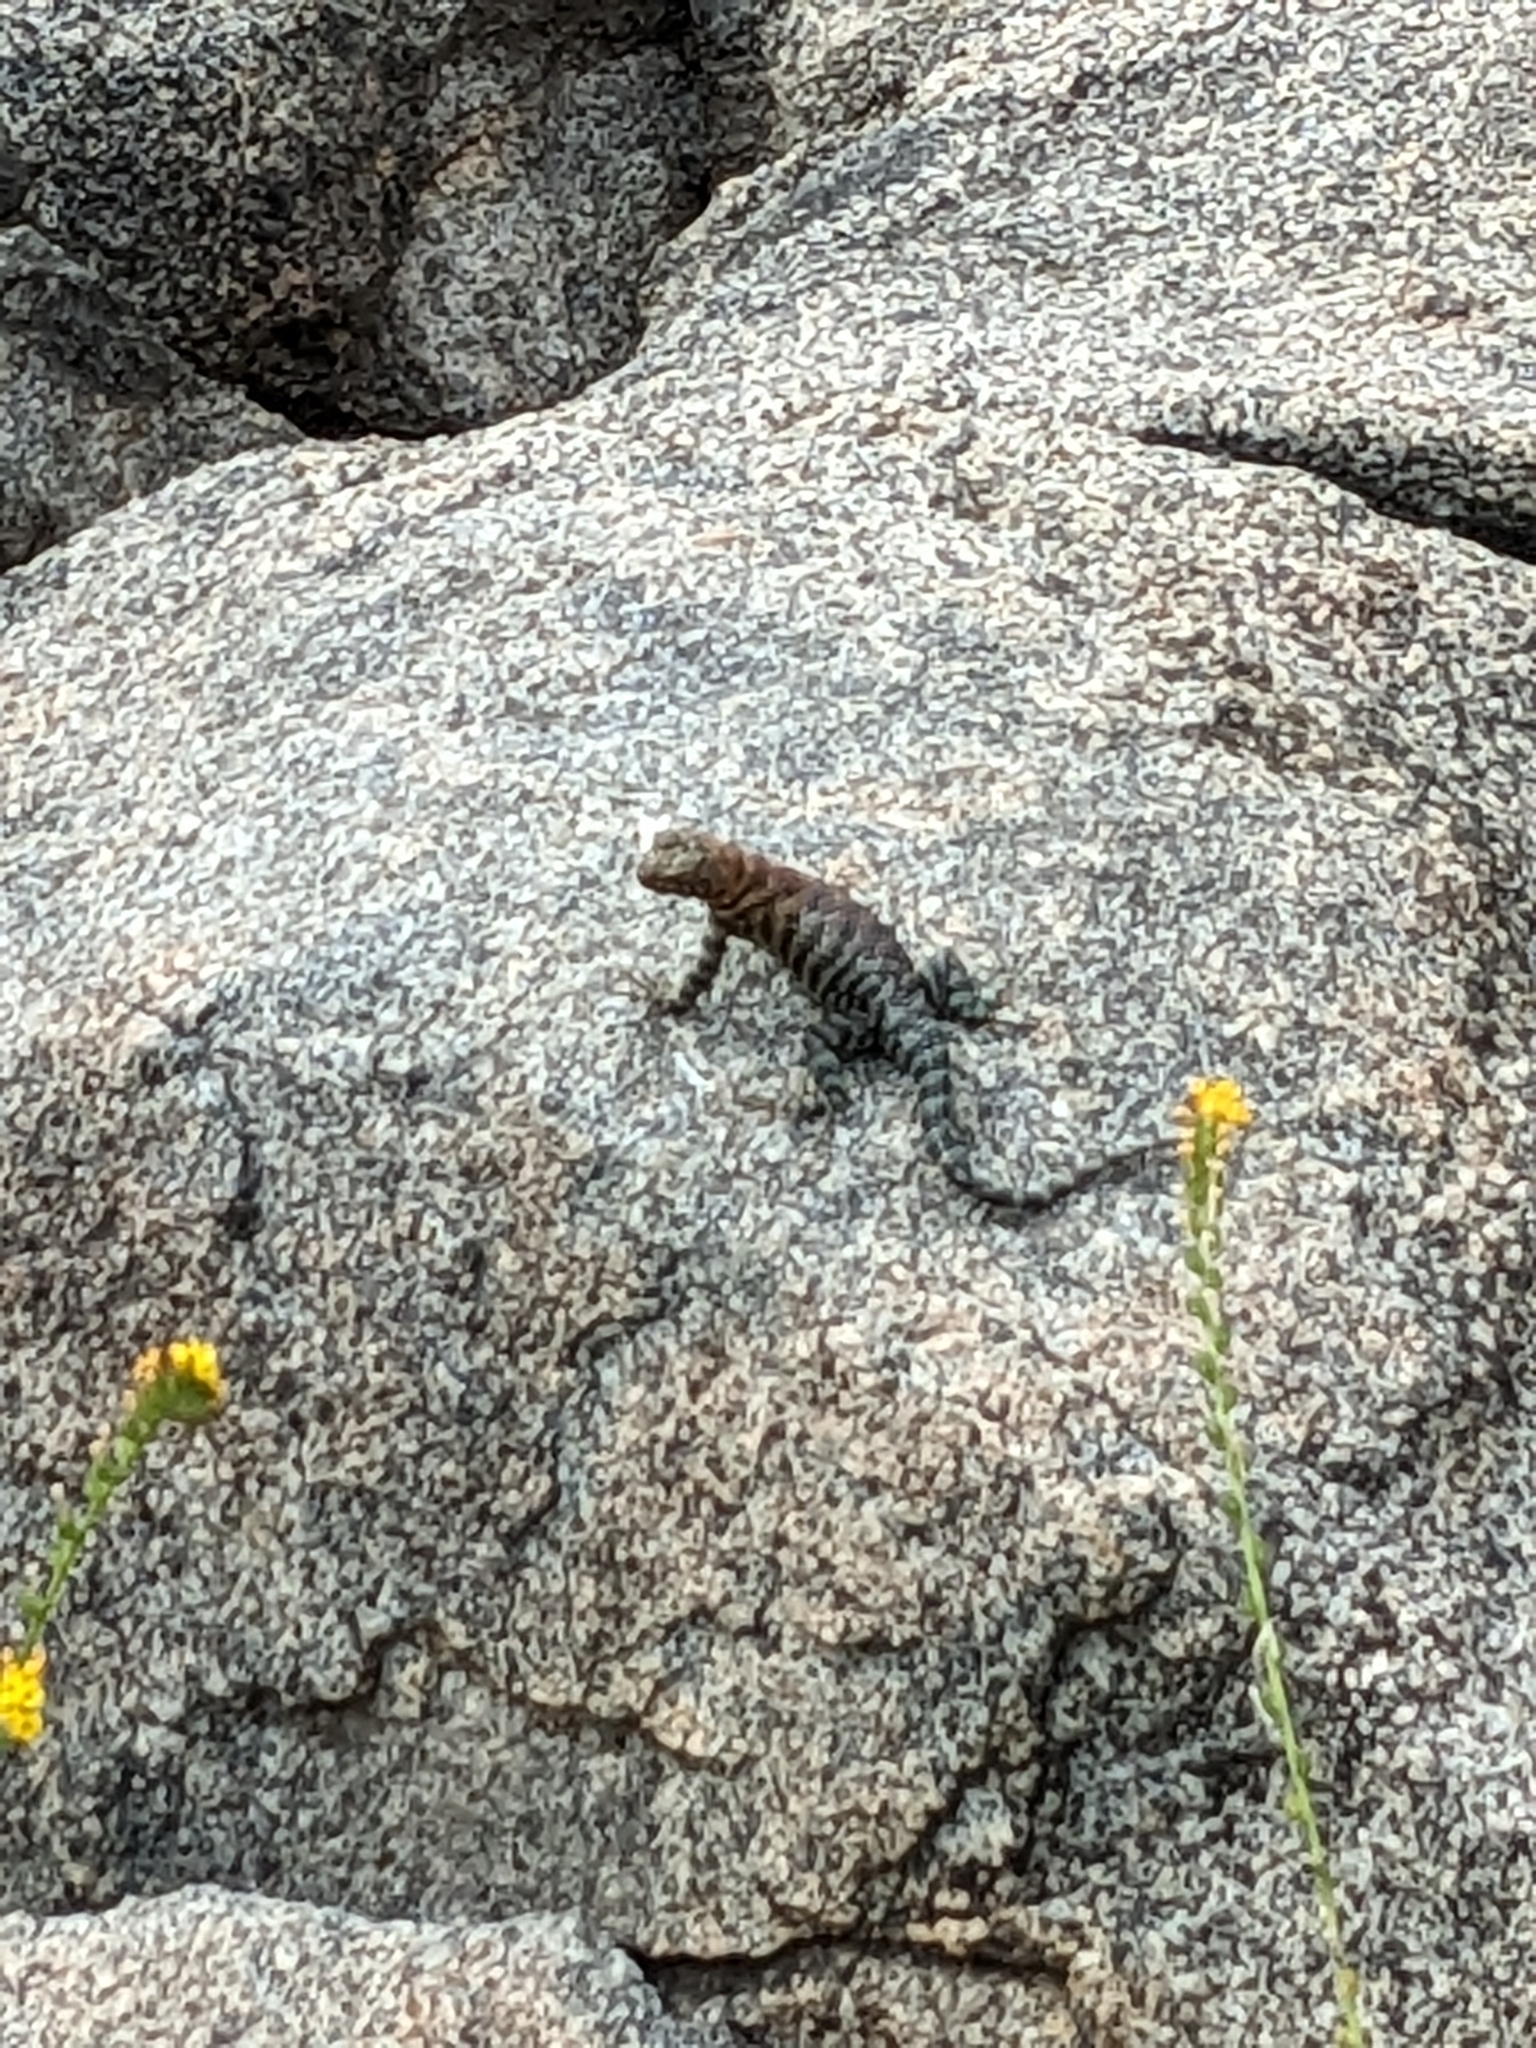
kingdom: Animalia
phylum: Chordata
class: Squamata
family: Phrynosomatidae
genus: Sceloporus
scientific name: Sceloporus orcutti
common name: Granite spiny lizard
